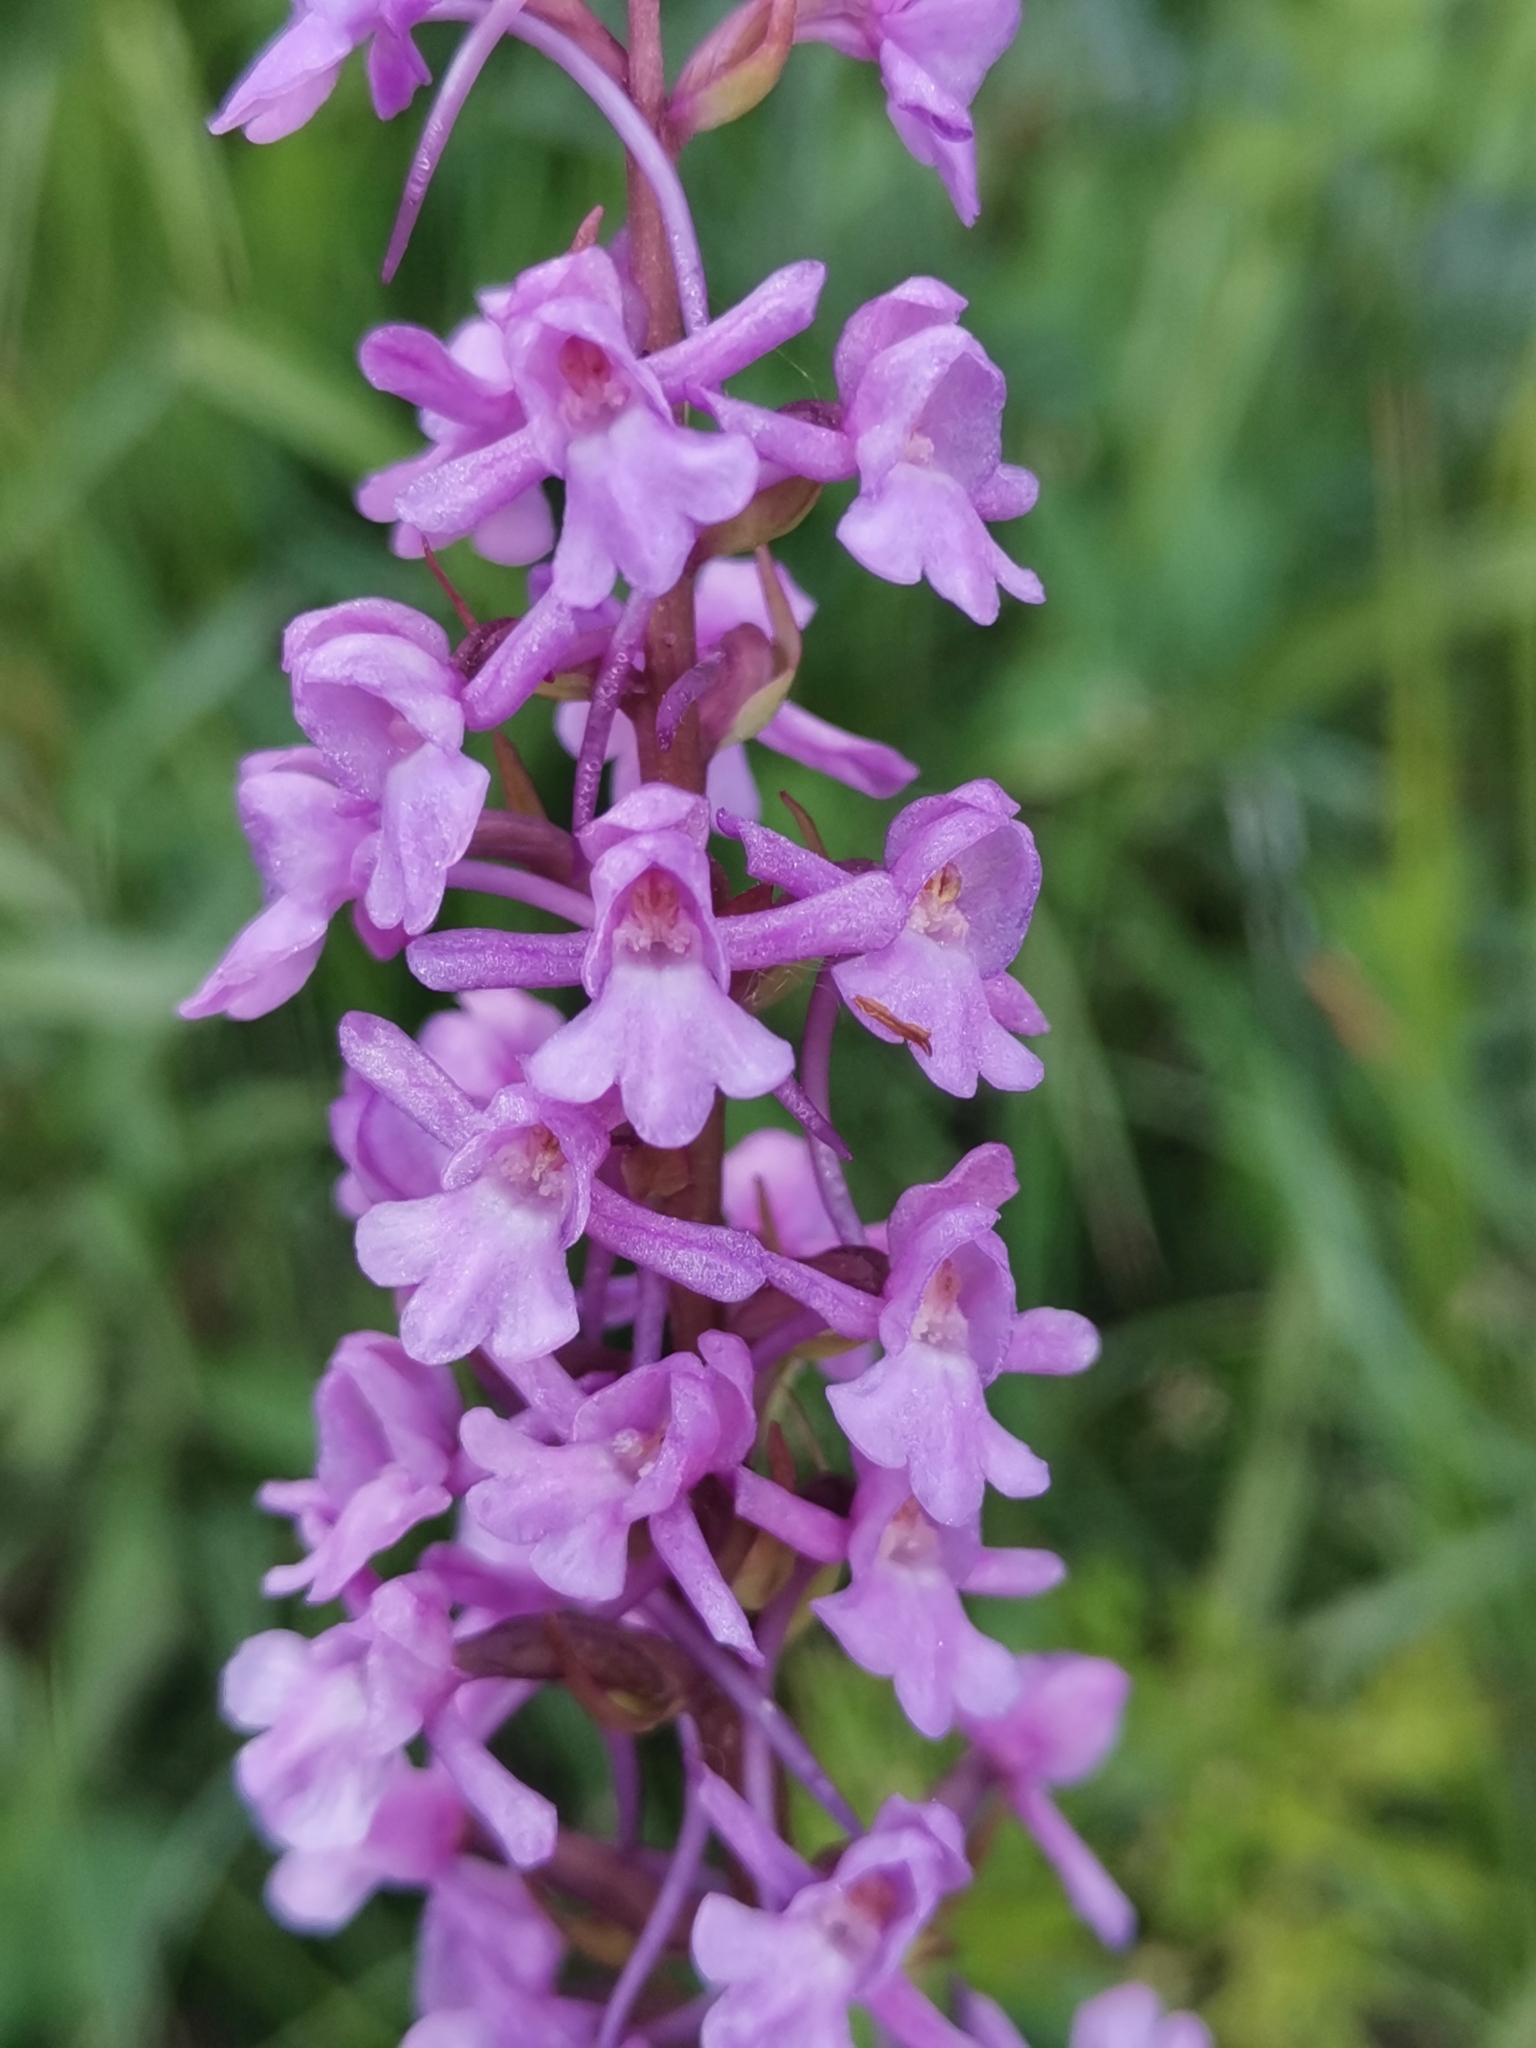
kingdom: Plantae
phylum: Tracheophyta
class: Liliopsida
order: Asparagales
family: Orchidaceae
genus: Gymnadenia
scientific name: Gymnadenia conopsea
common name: Fragrant orchid
